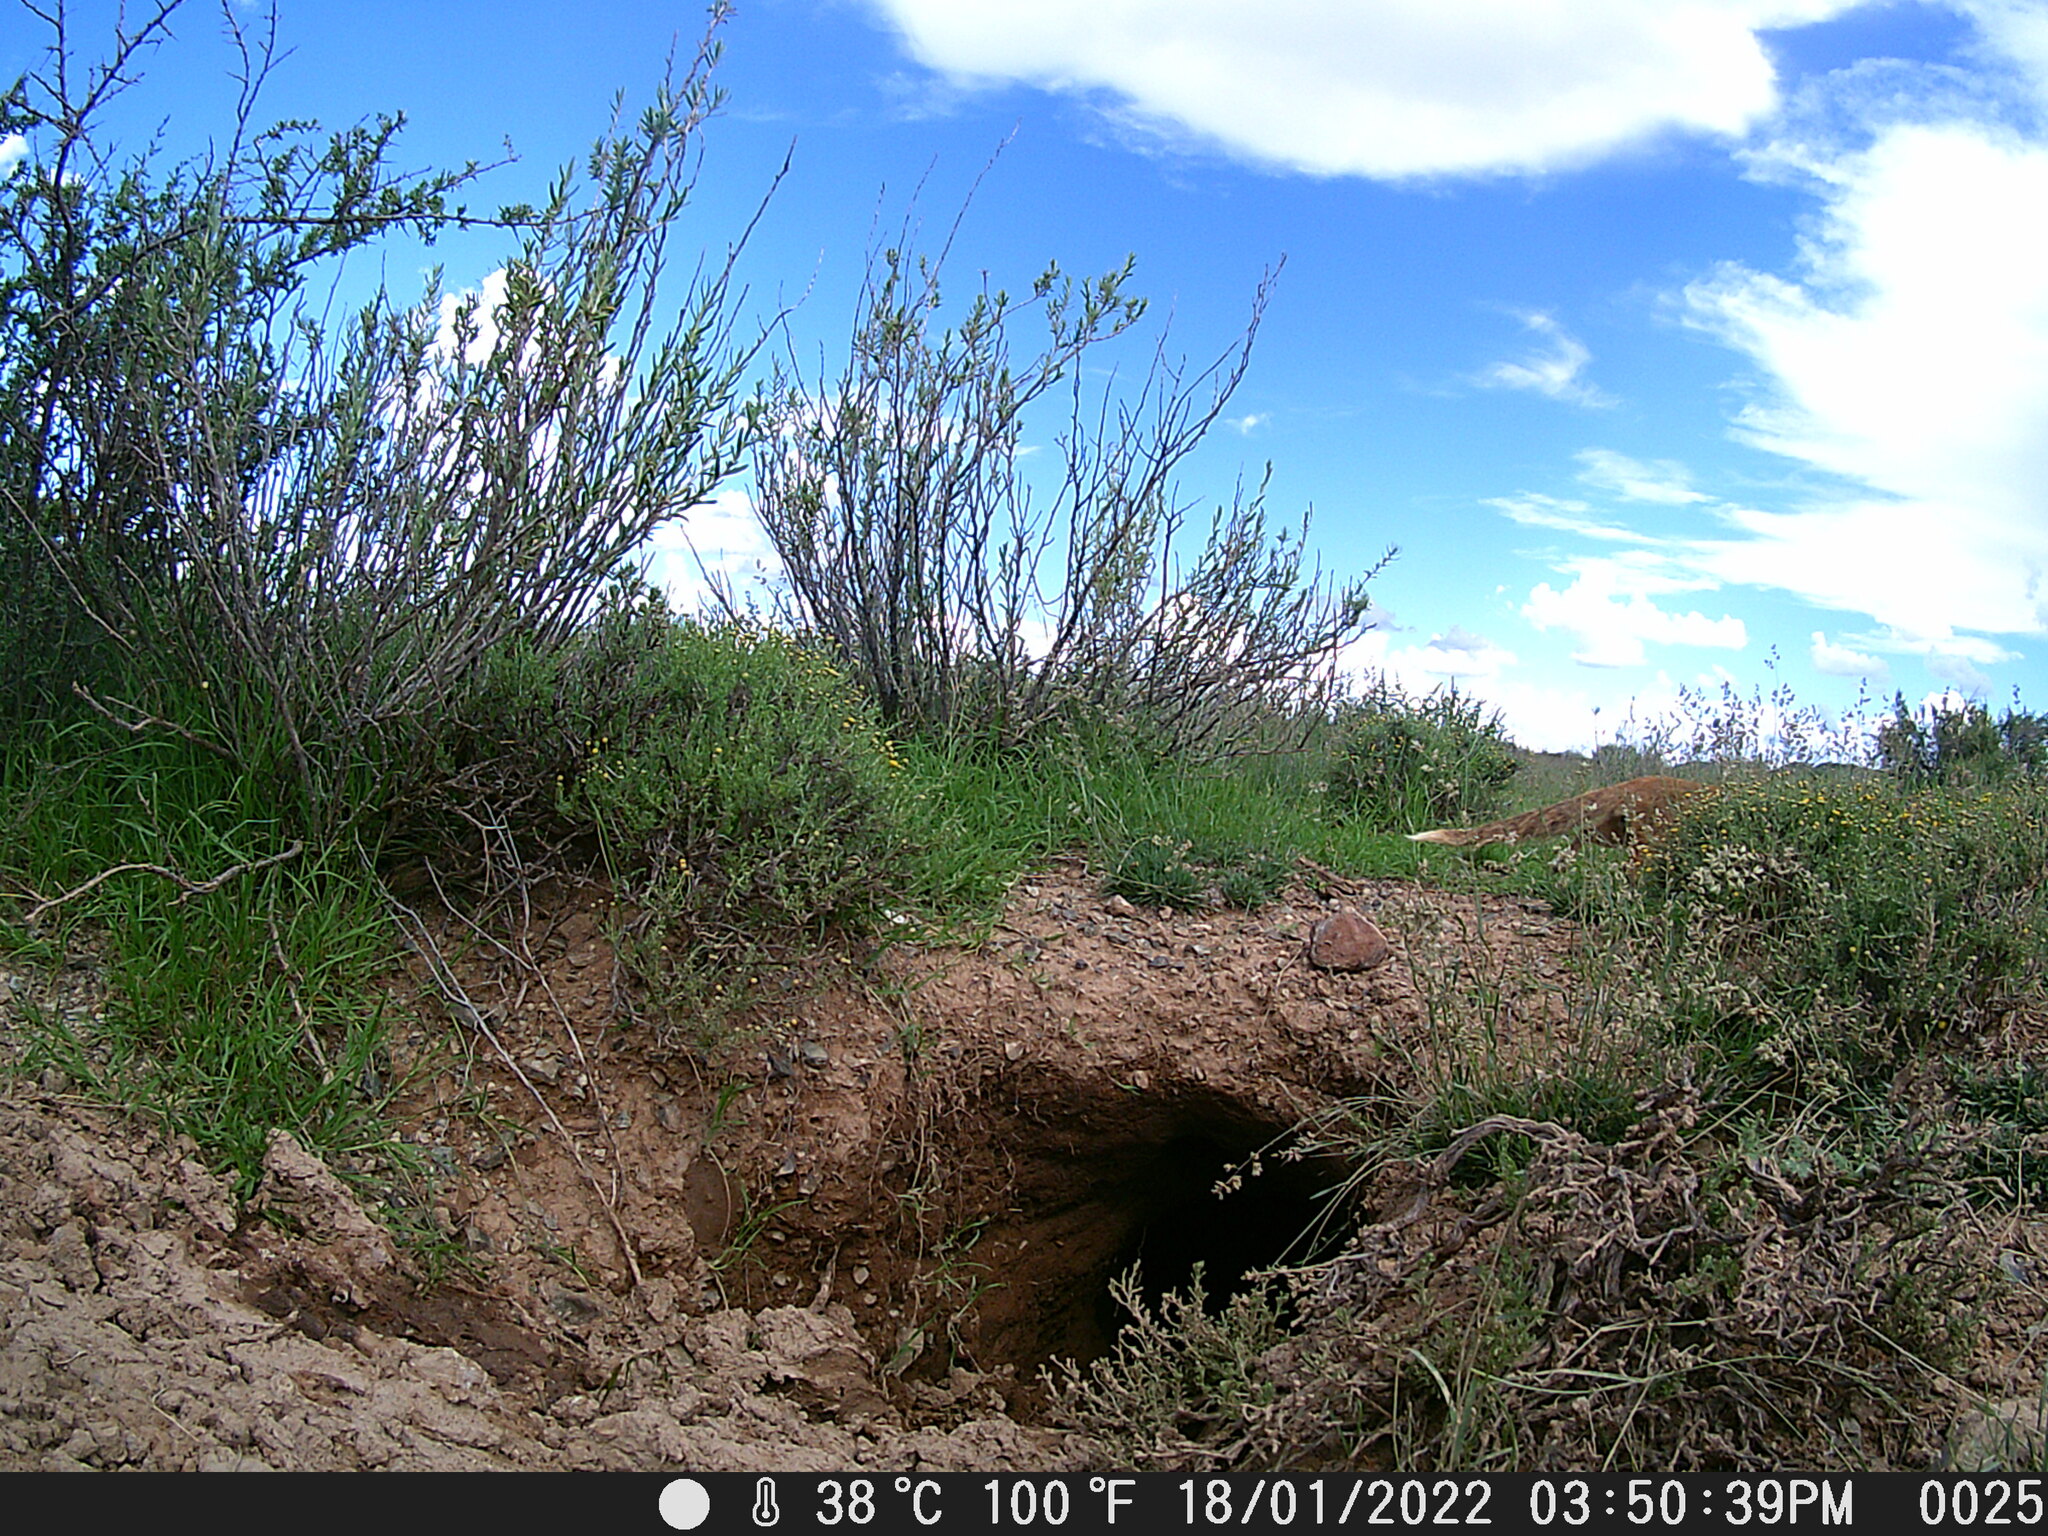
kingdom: Animalia
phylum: Chordata
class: Mammalia
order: Carnivora
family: Herpestidae
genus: Cynictis
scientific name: Cynictis penicillata
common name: Yellow mongoose
